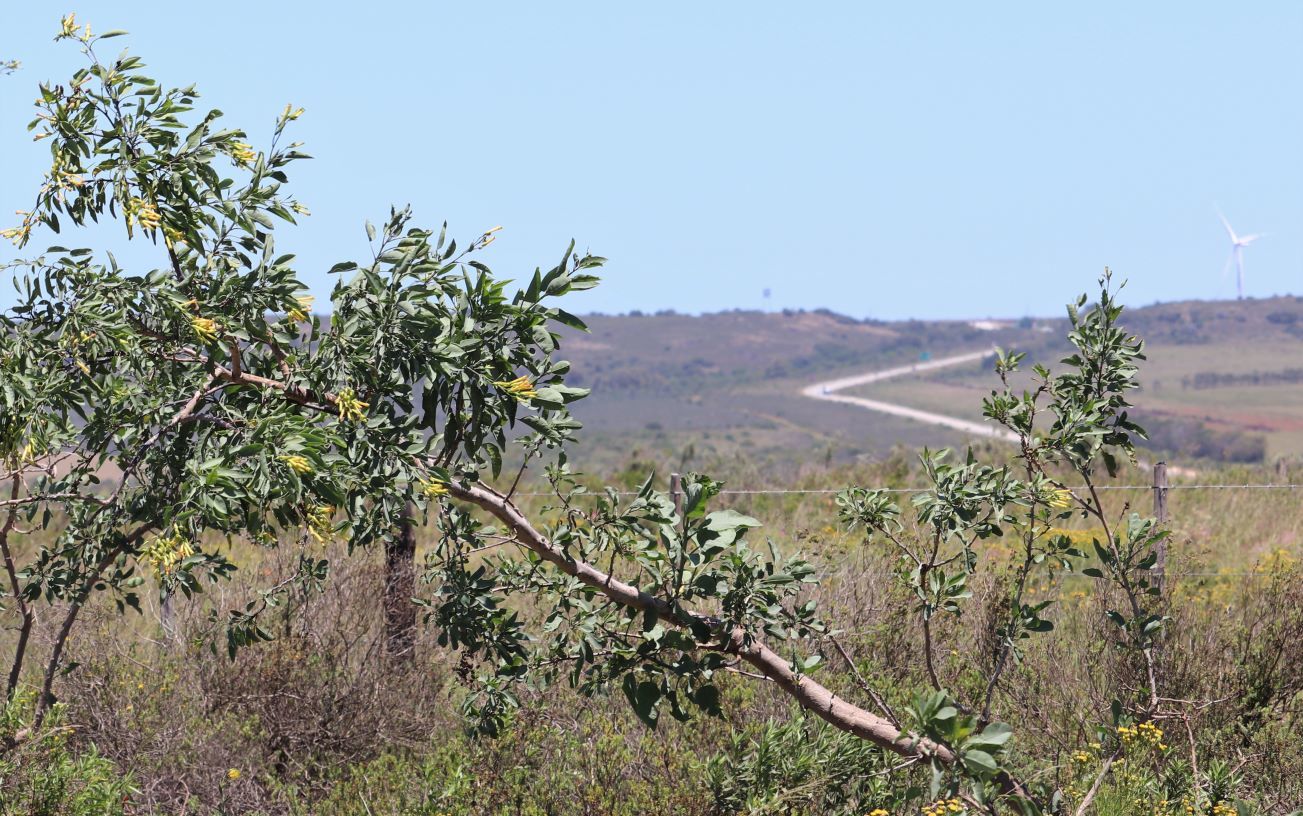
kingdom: Plantae
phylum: Tracheophyta
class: Magnoliopsida
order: Solanales
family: Solanaceae
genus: Nicotiana
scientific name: Nicotiana glauca
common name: Tree tobacco
